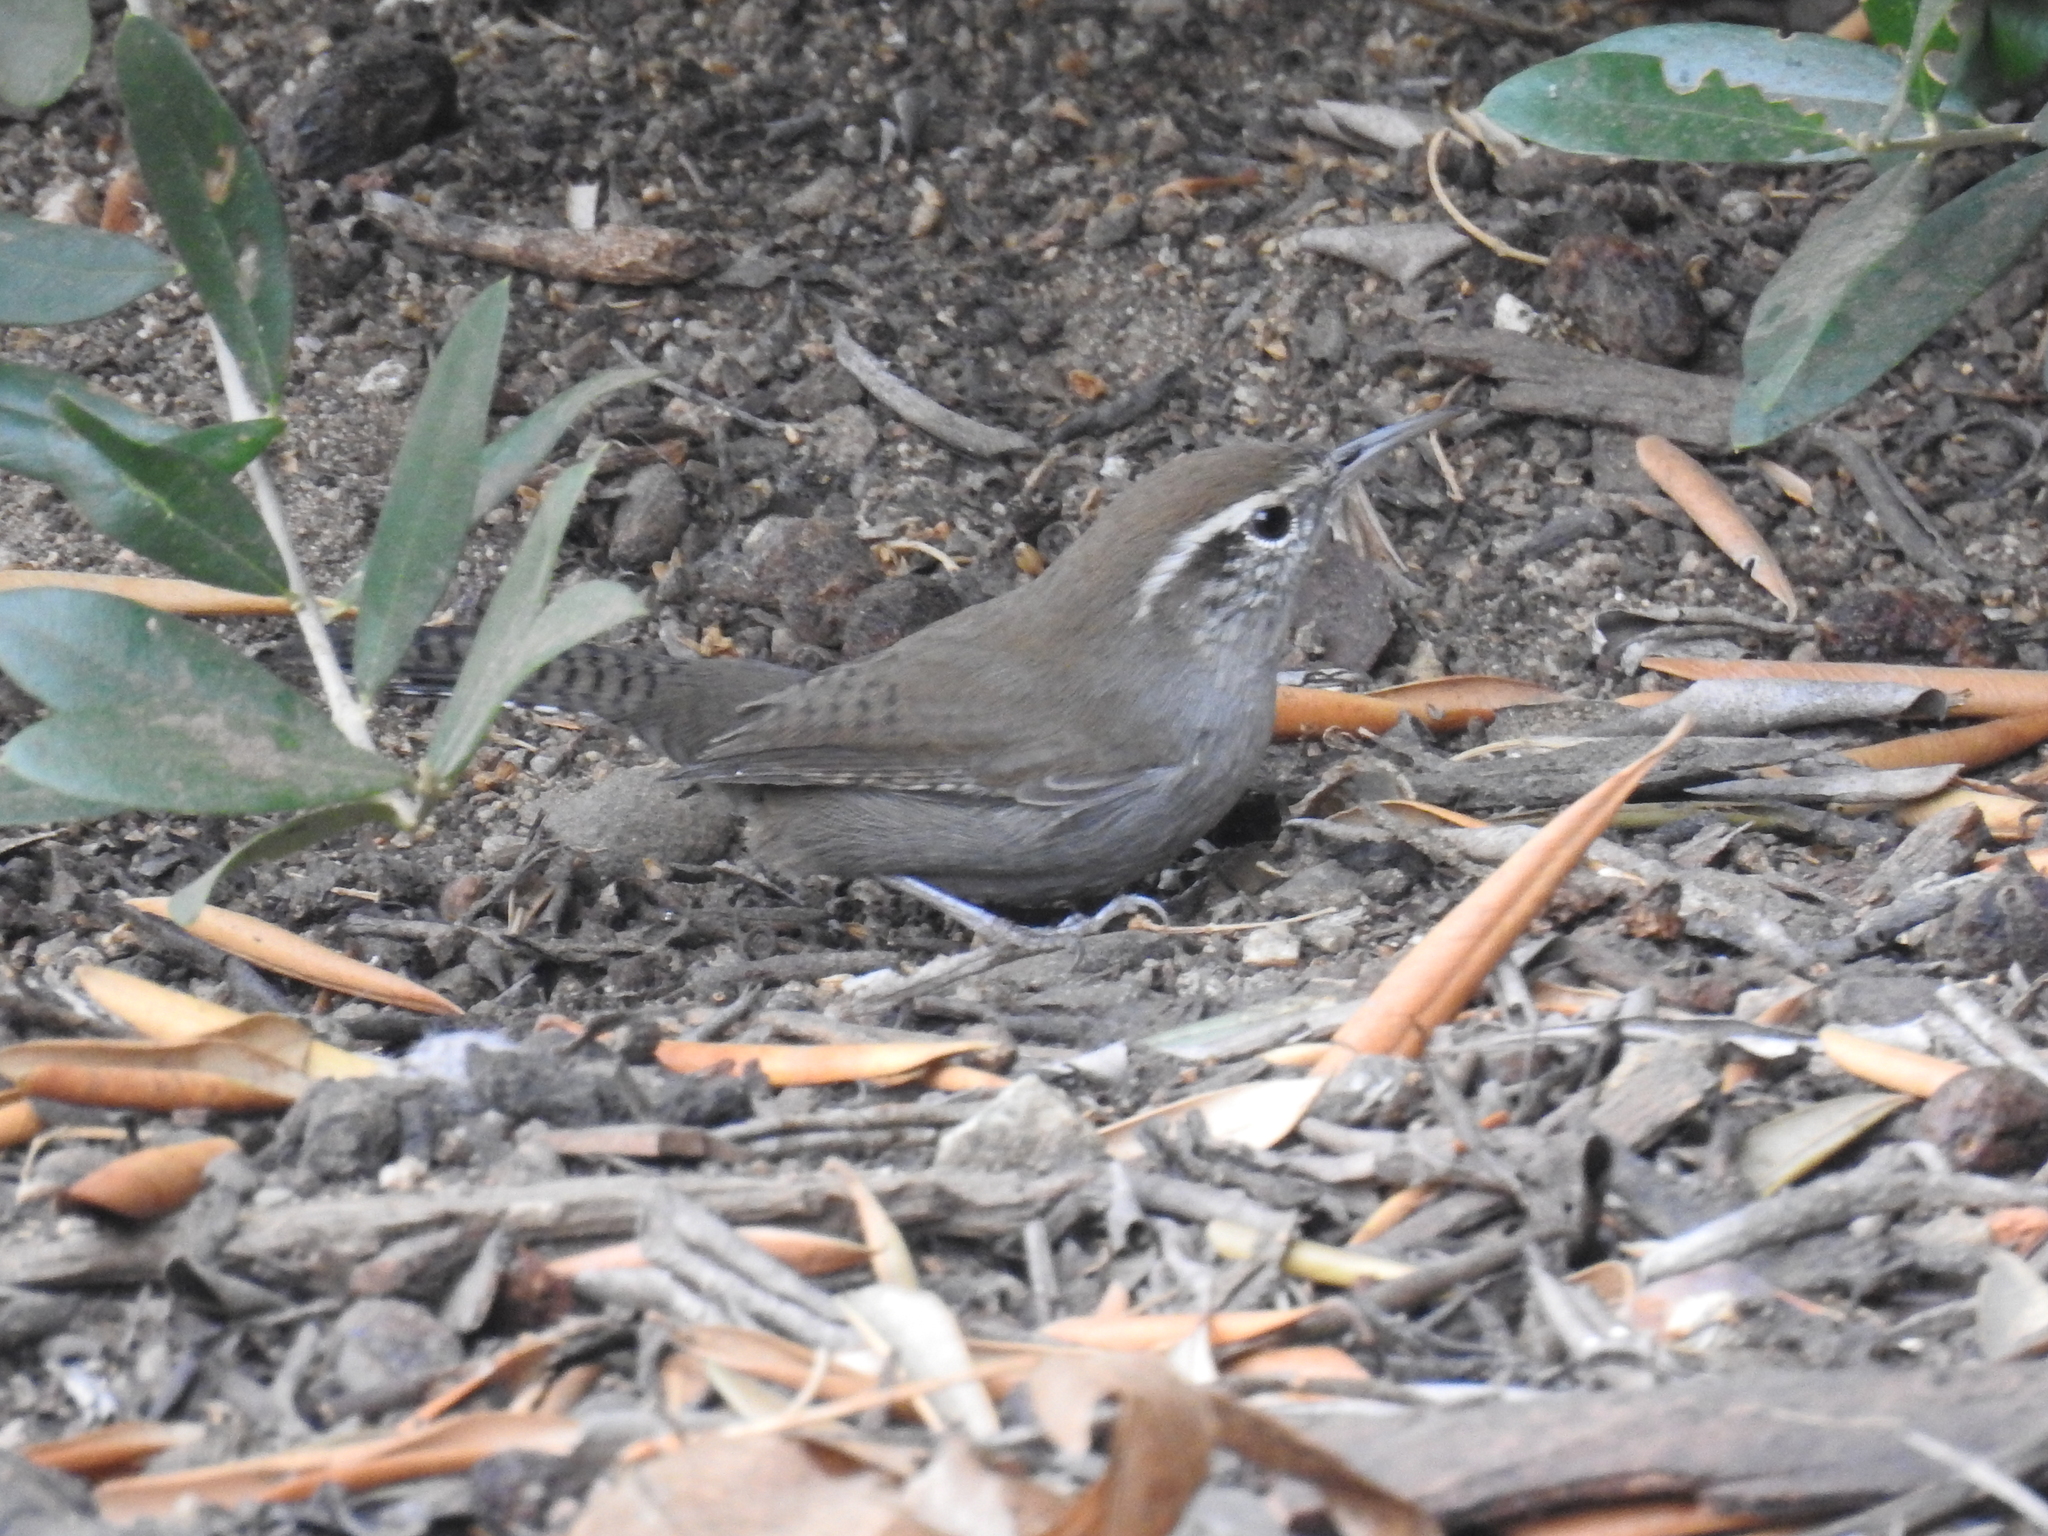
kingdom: Animalia
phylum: Chordata
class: Aves
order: Passeriformes
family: Troglodytidae
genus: Thryomanes
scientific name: Thryomanes bewickii
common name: Bewick's wren
